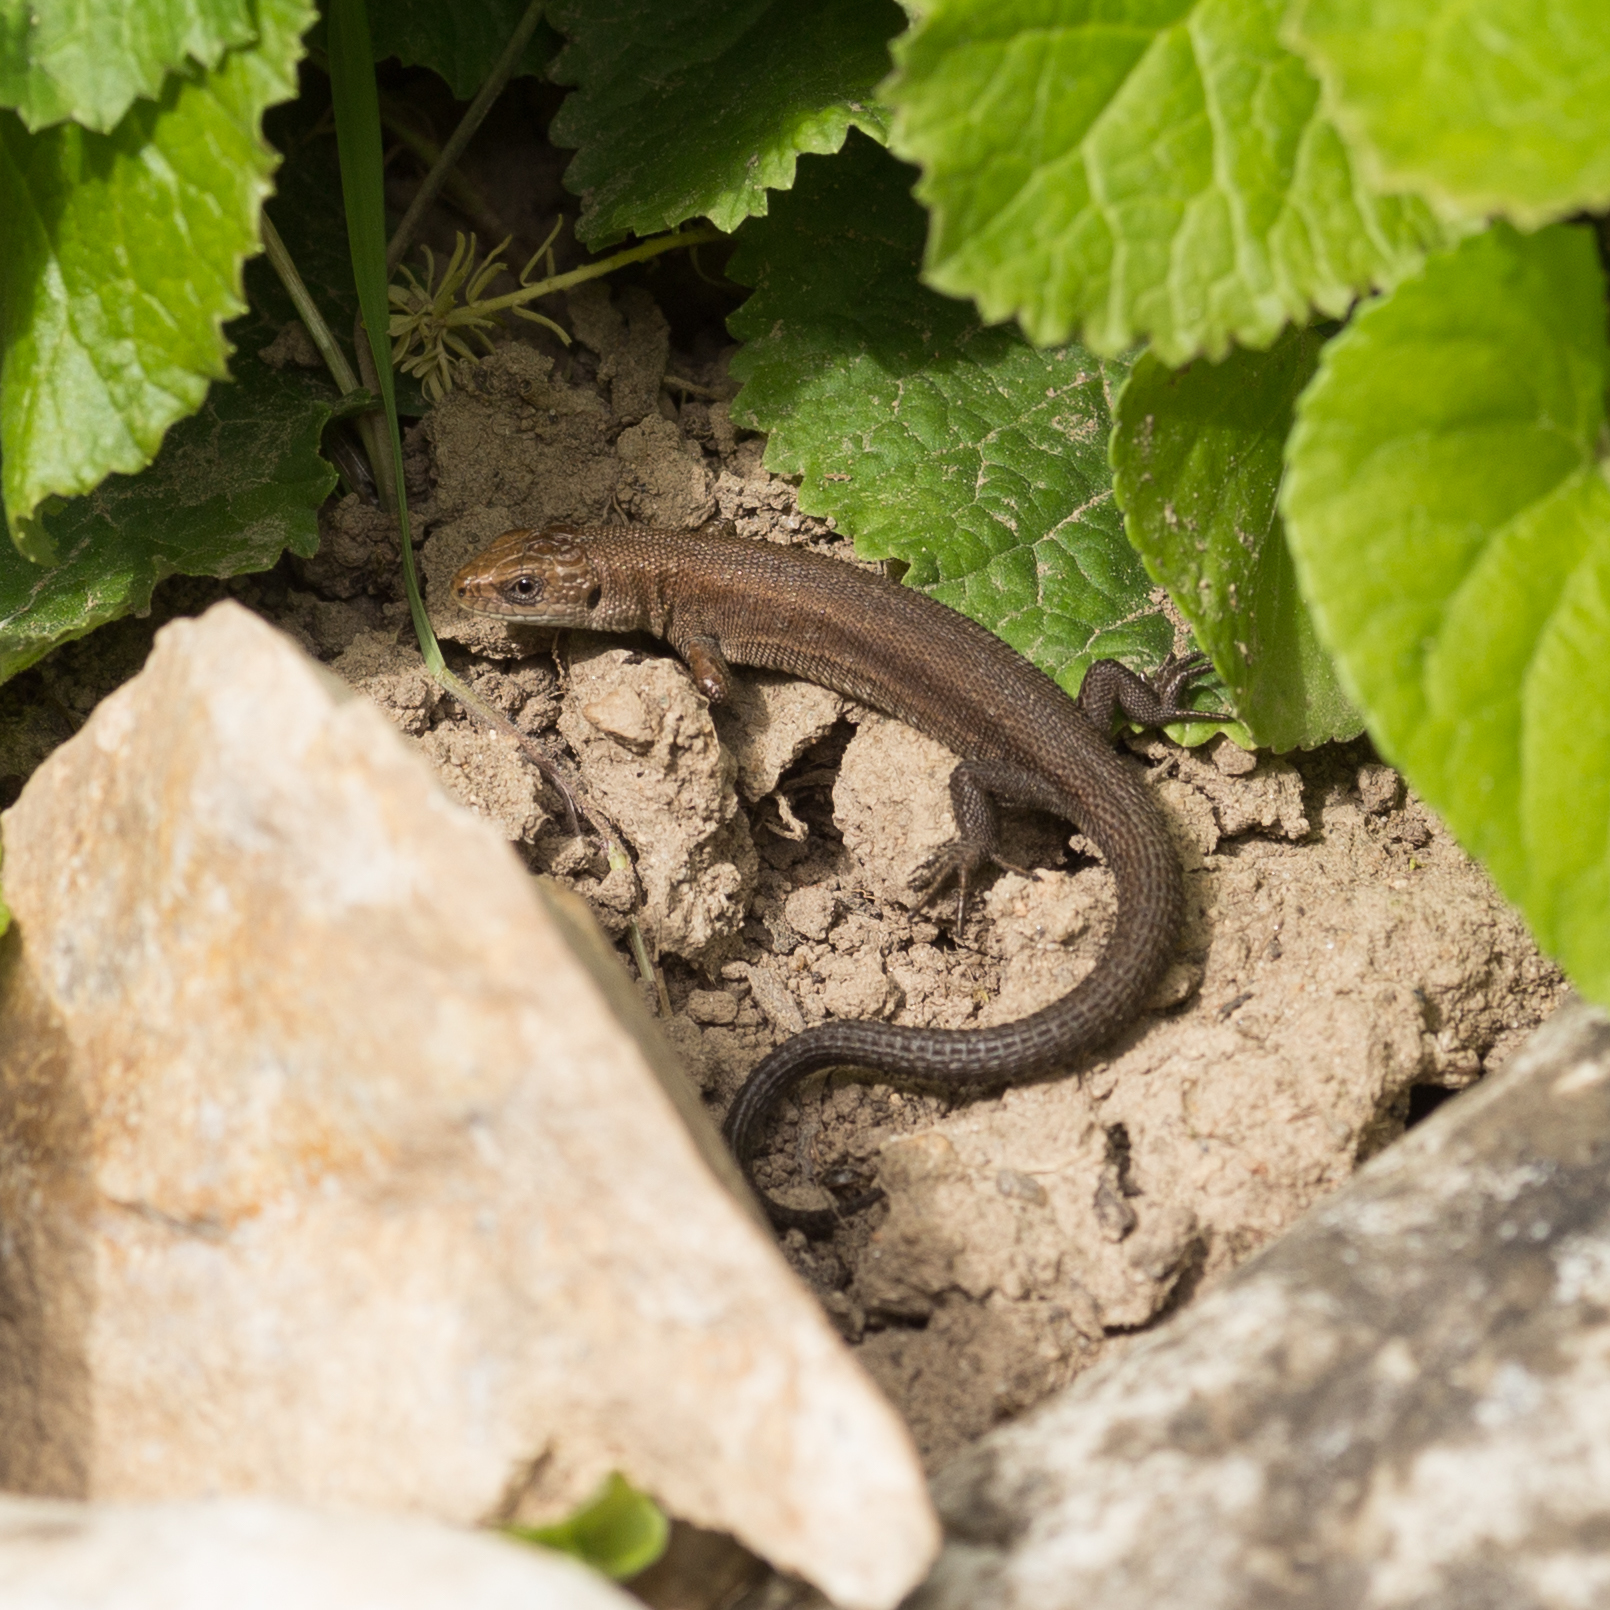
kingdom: Animalia
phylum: Chordata
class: Squamata
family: Lacertidae
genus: Zootoca
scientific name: Zootoca vivipara
